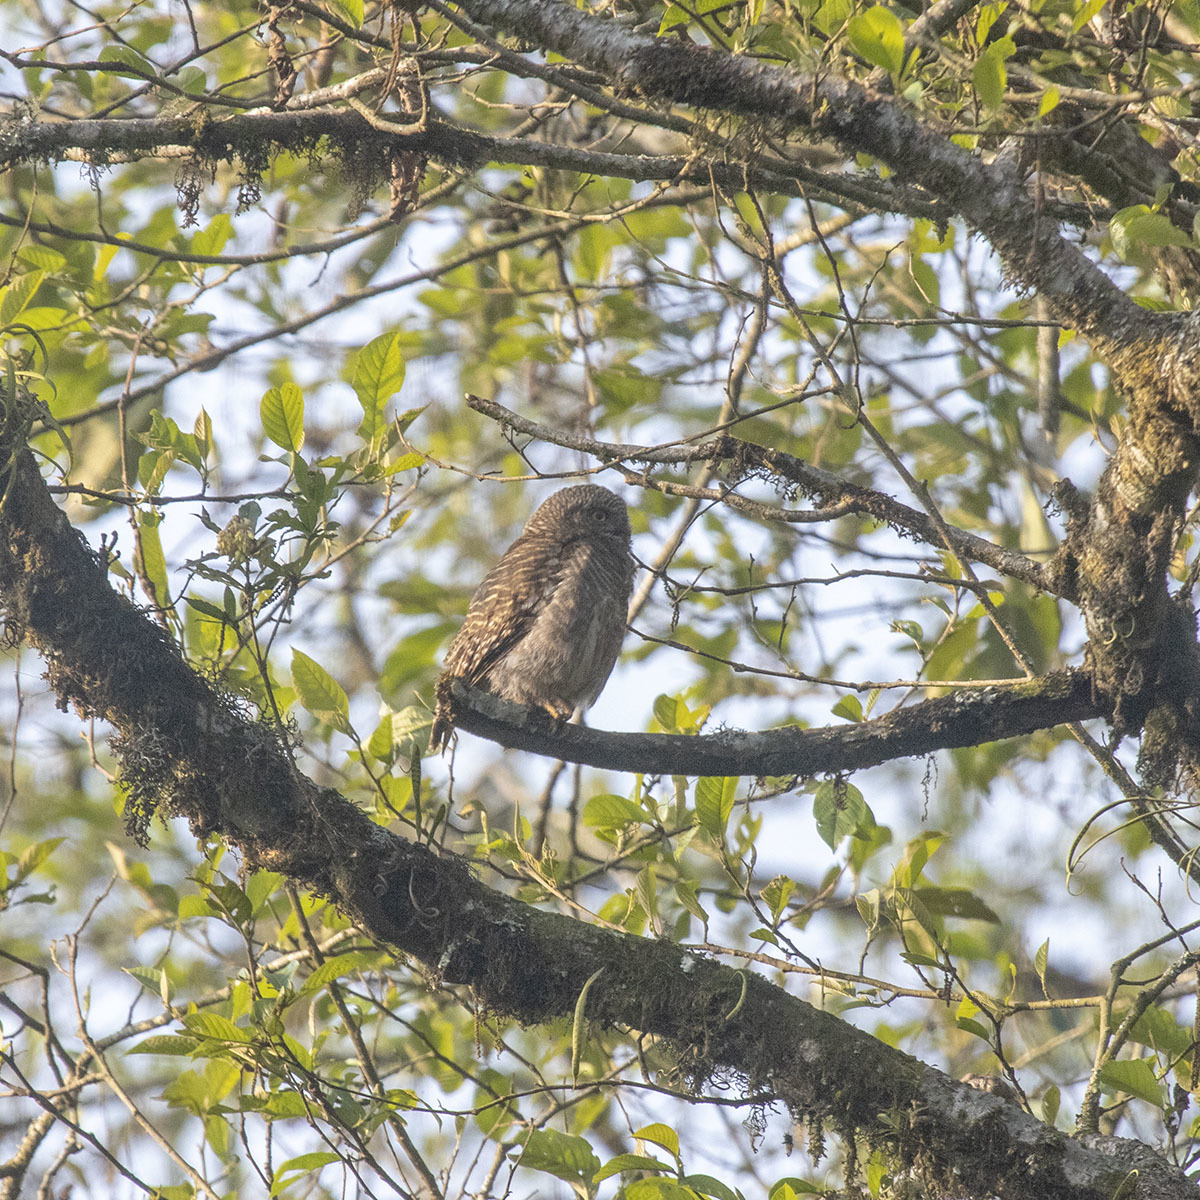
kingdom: Animalia
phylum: Chordata
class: Aves
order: Strigiformes
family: Strigidae
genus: Glaucidium
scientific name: Glaucidium cuculoides
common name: Asian barred owlet
